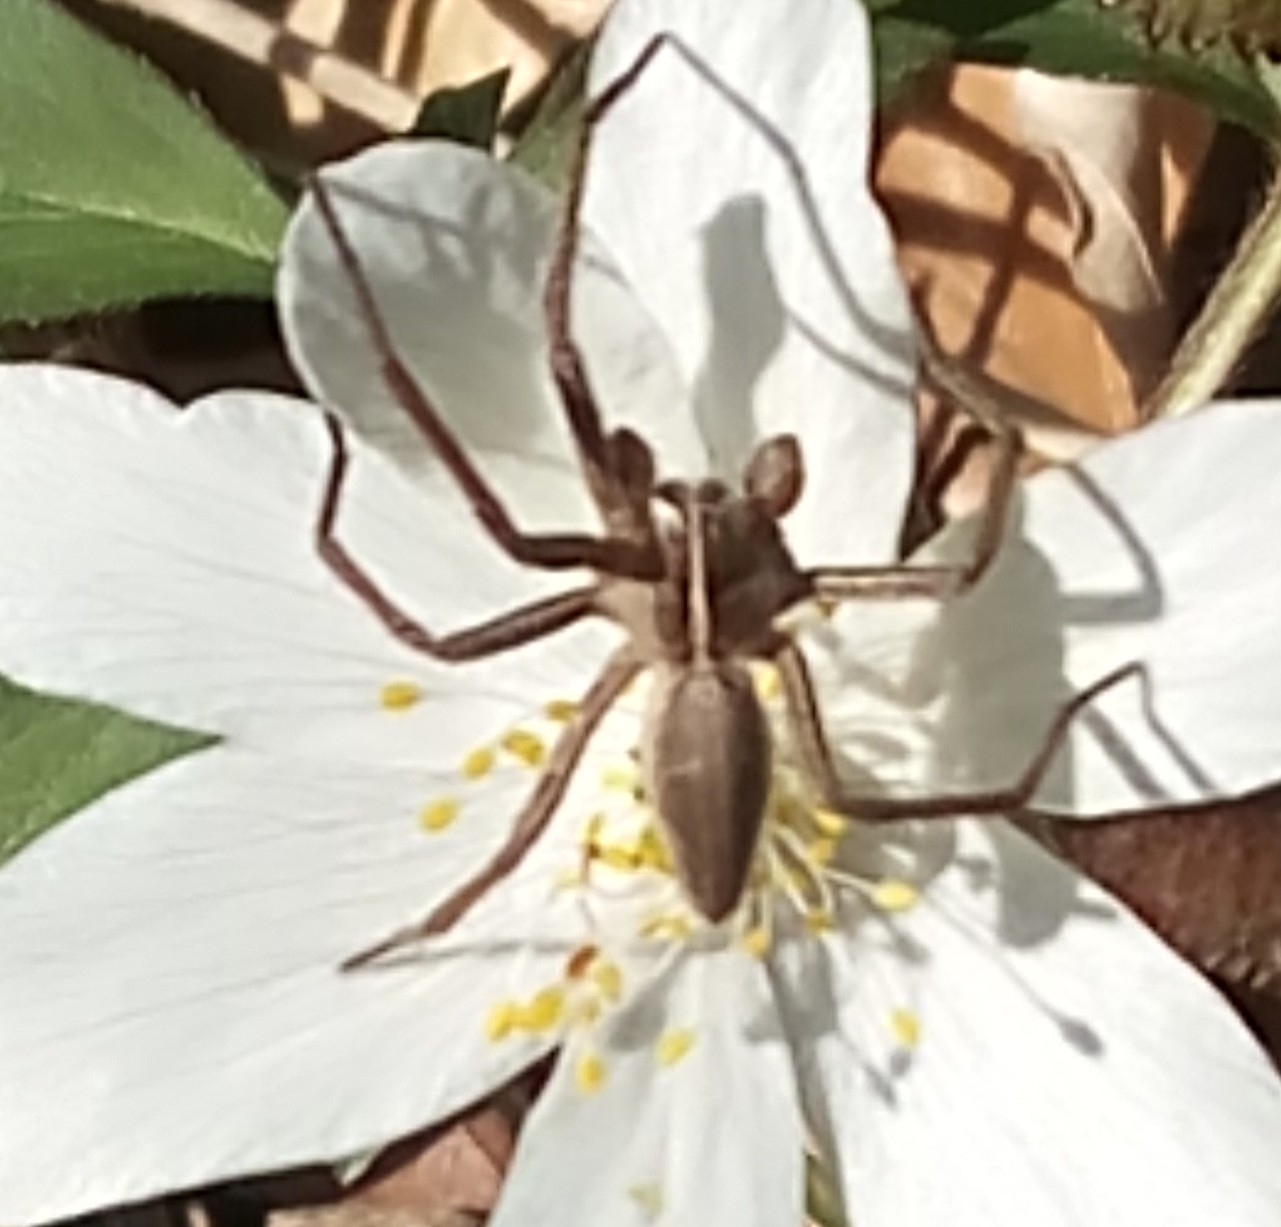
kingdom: Animalia
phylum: Arthropoda
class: Arachnida
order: Araneae
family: Pisauridae
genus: Pisaura
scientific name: Pisaura mirabilis
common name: Tent spider
